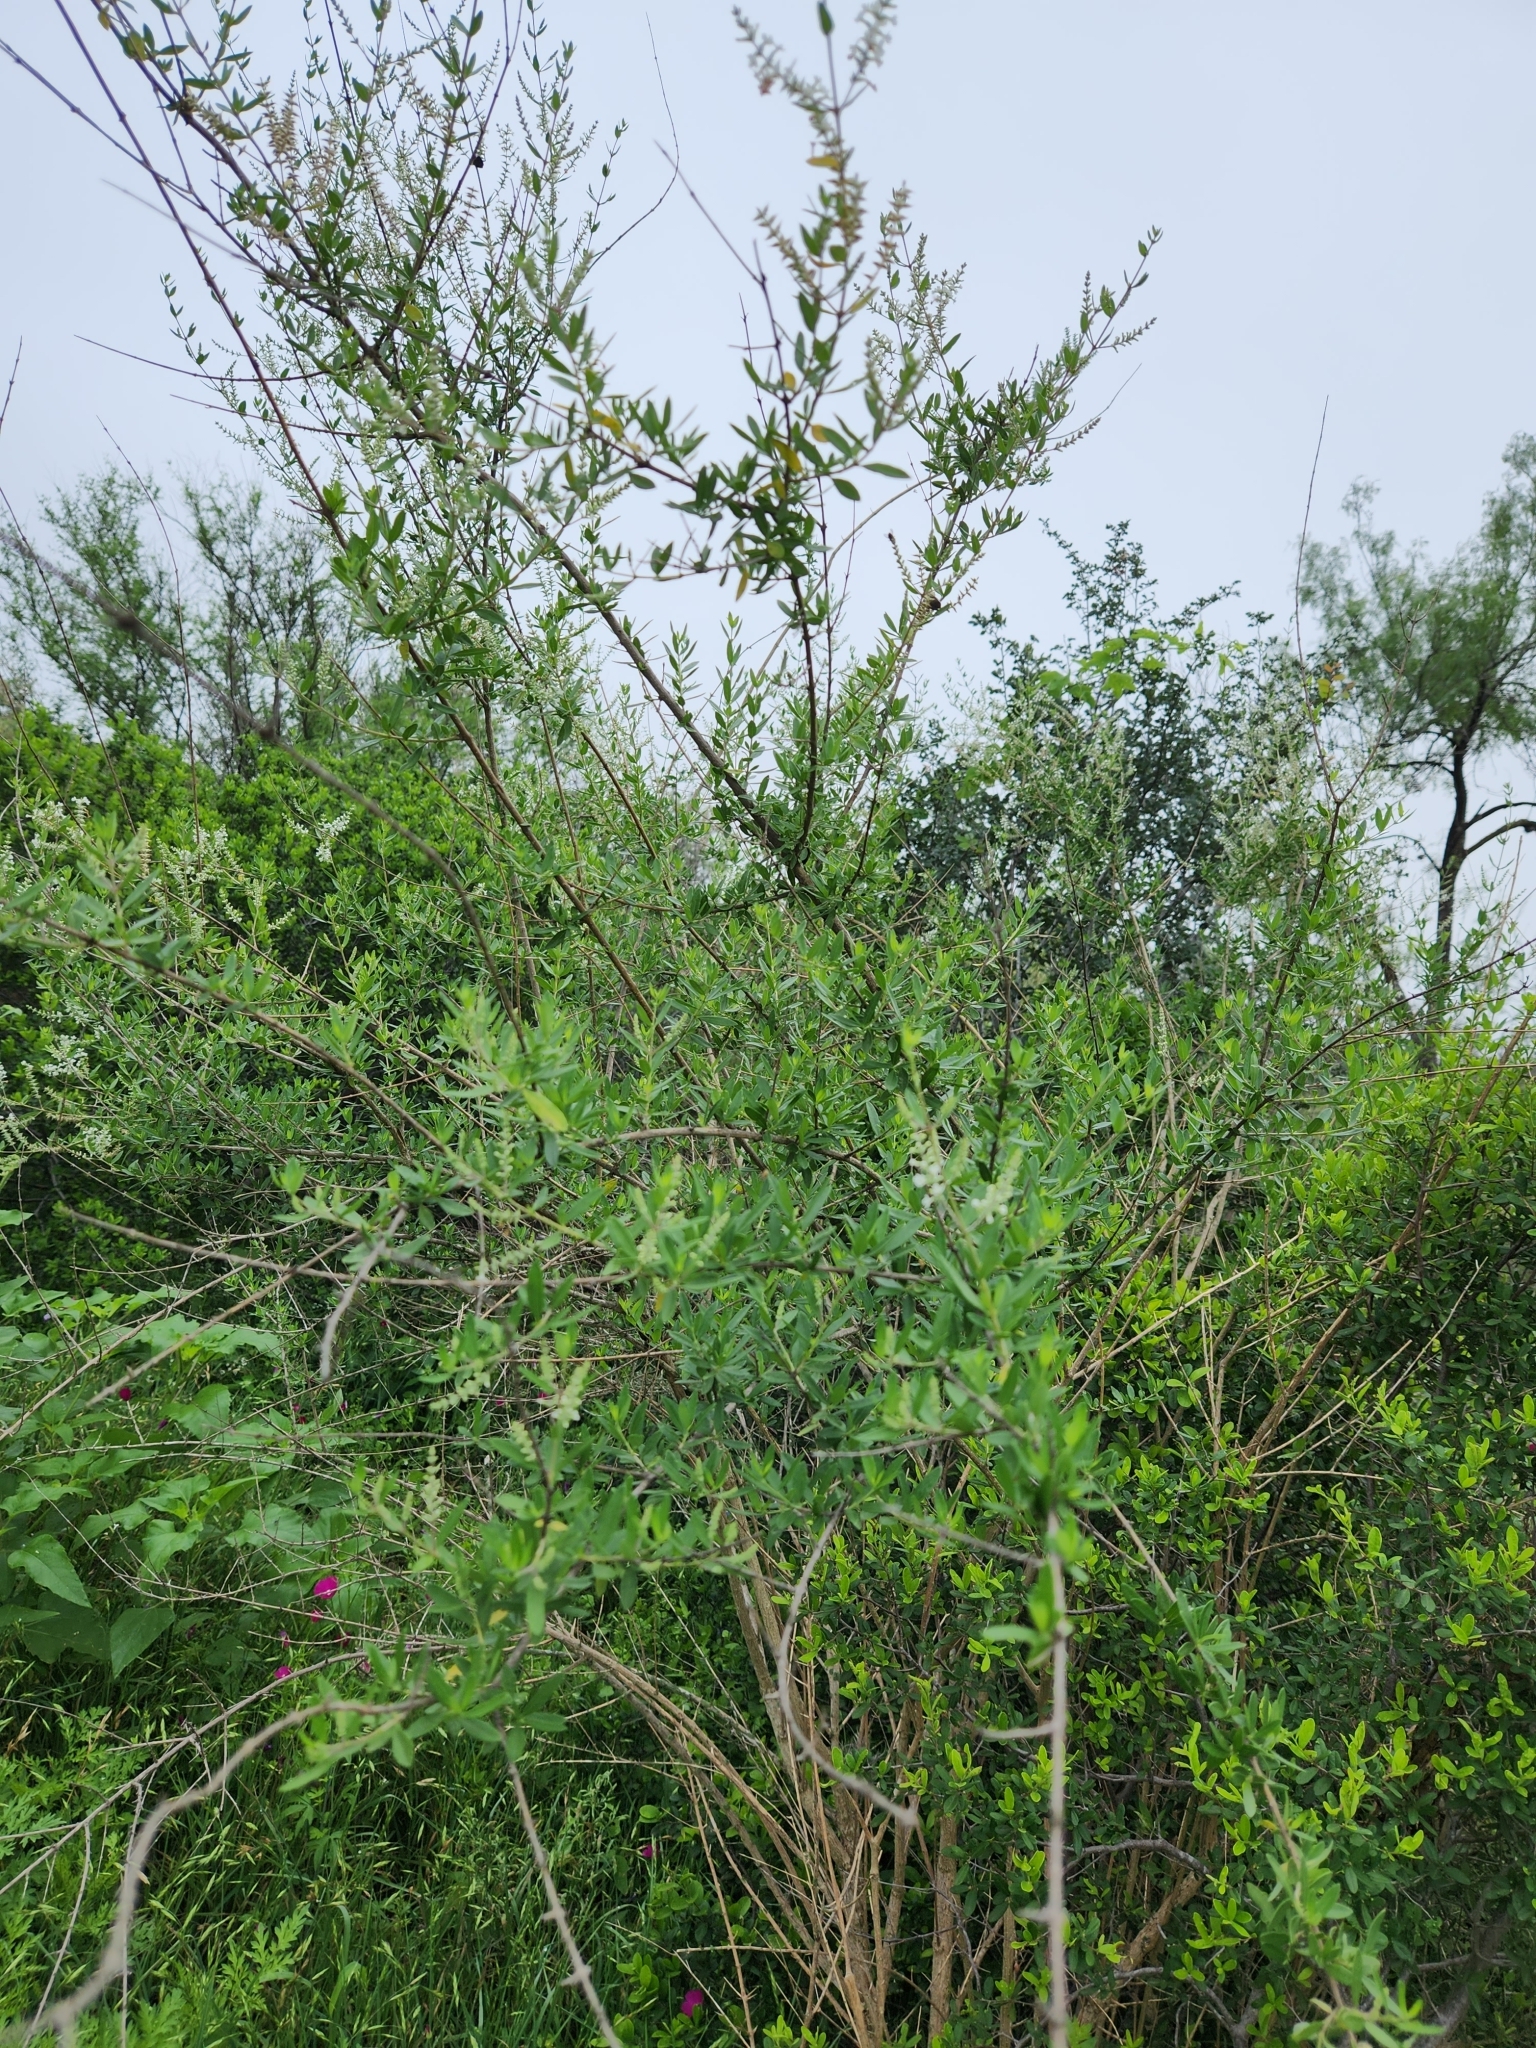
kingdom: Plantae
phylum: Tracheophyta
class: Magnoliopsida
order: Lamiales
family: Verbenaceae
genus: Aloysia
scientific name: Aloysia gratissima
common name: Common bee-brush
